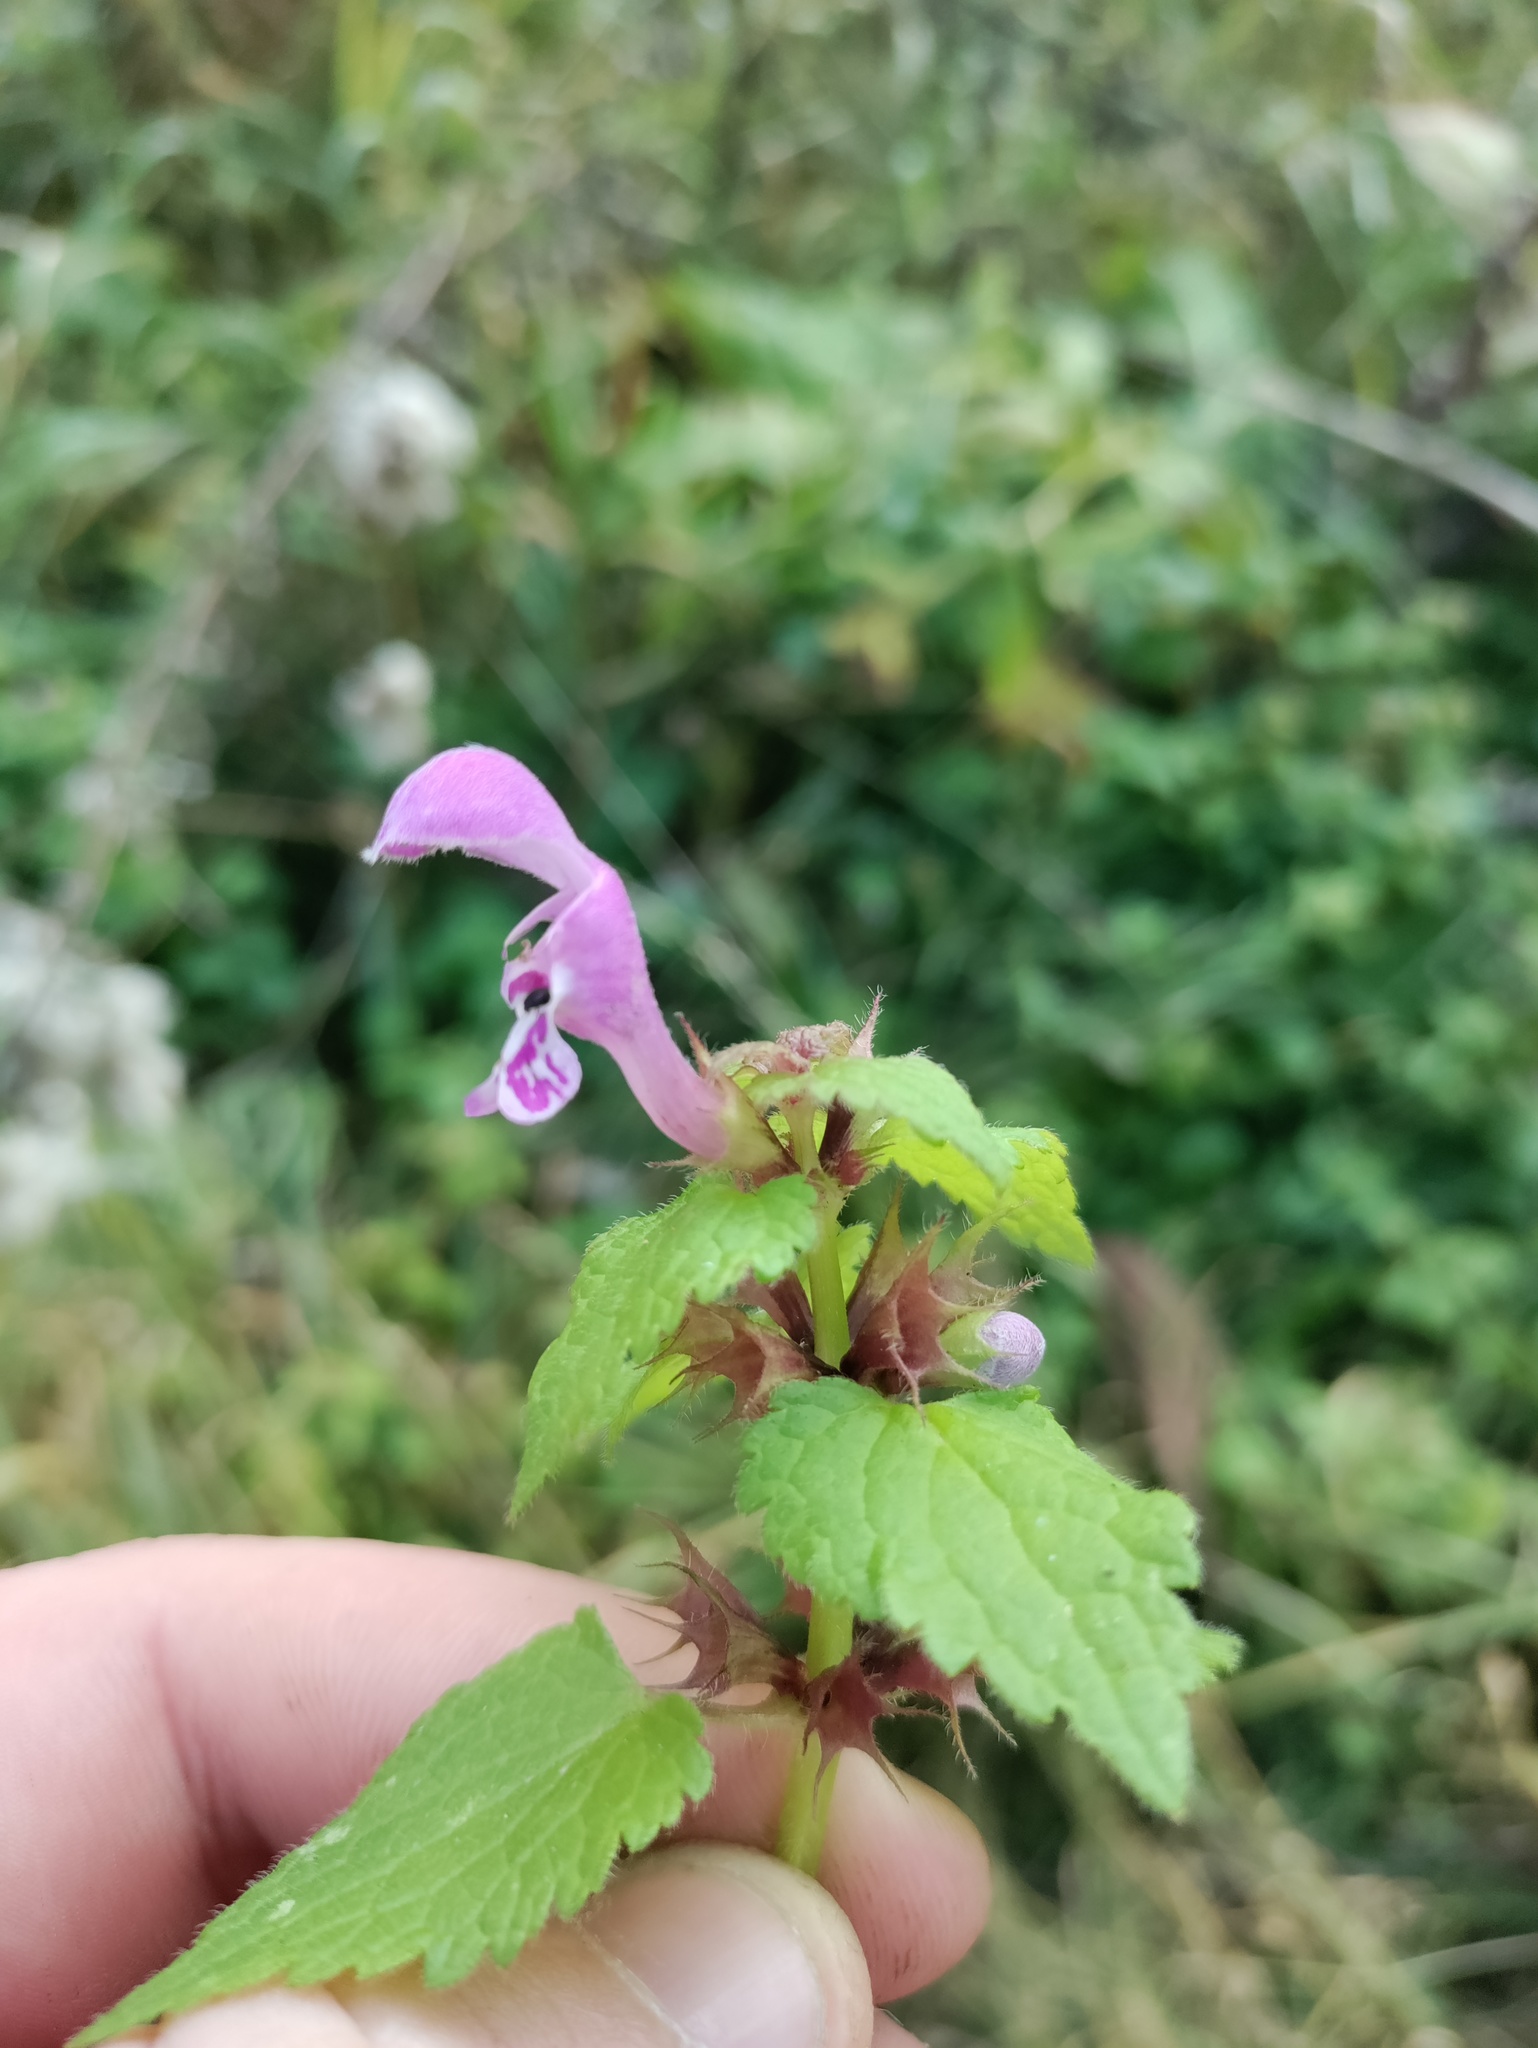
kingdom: Plantae
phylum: Tracheophyta
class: Magnoliopsida
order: Lamiales
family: Lamiaceae
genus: Lamium
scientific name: Lamium maculatum
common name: Spotted dead-nettle
